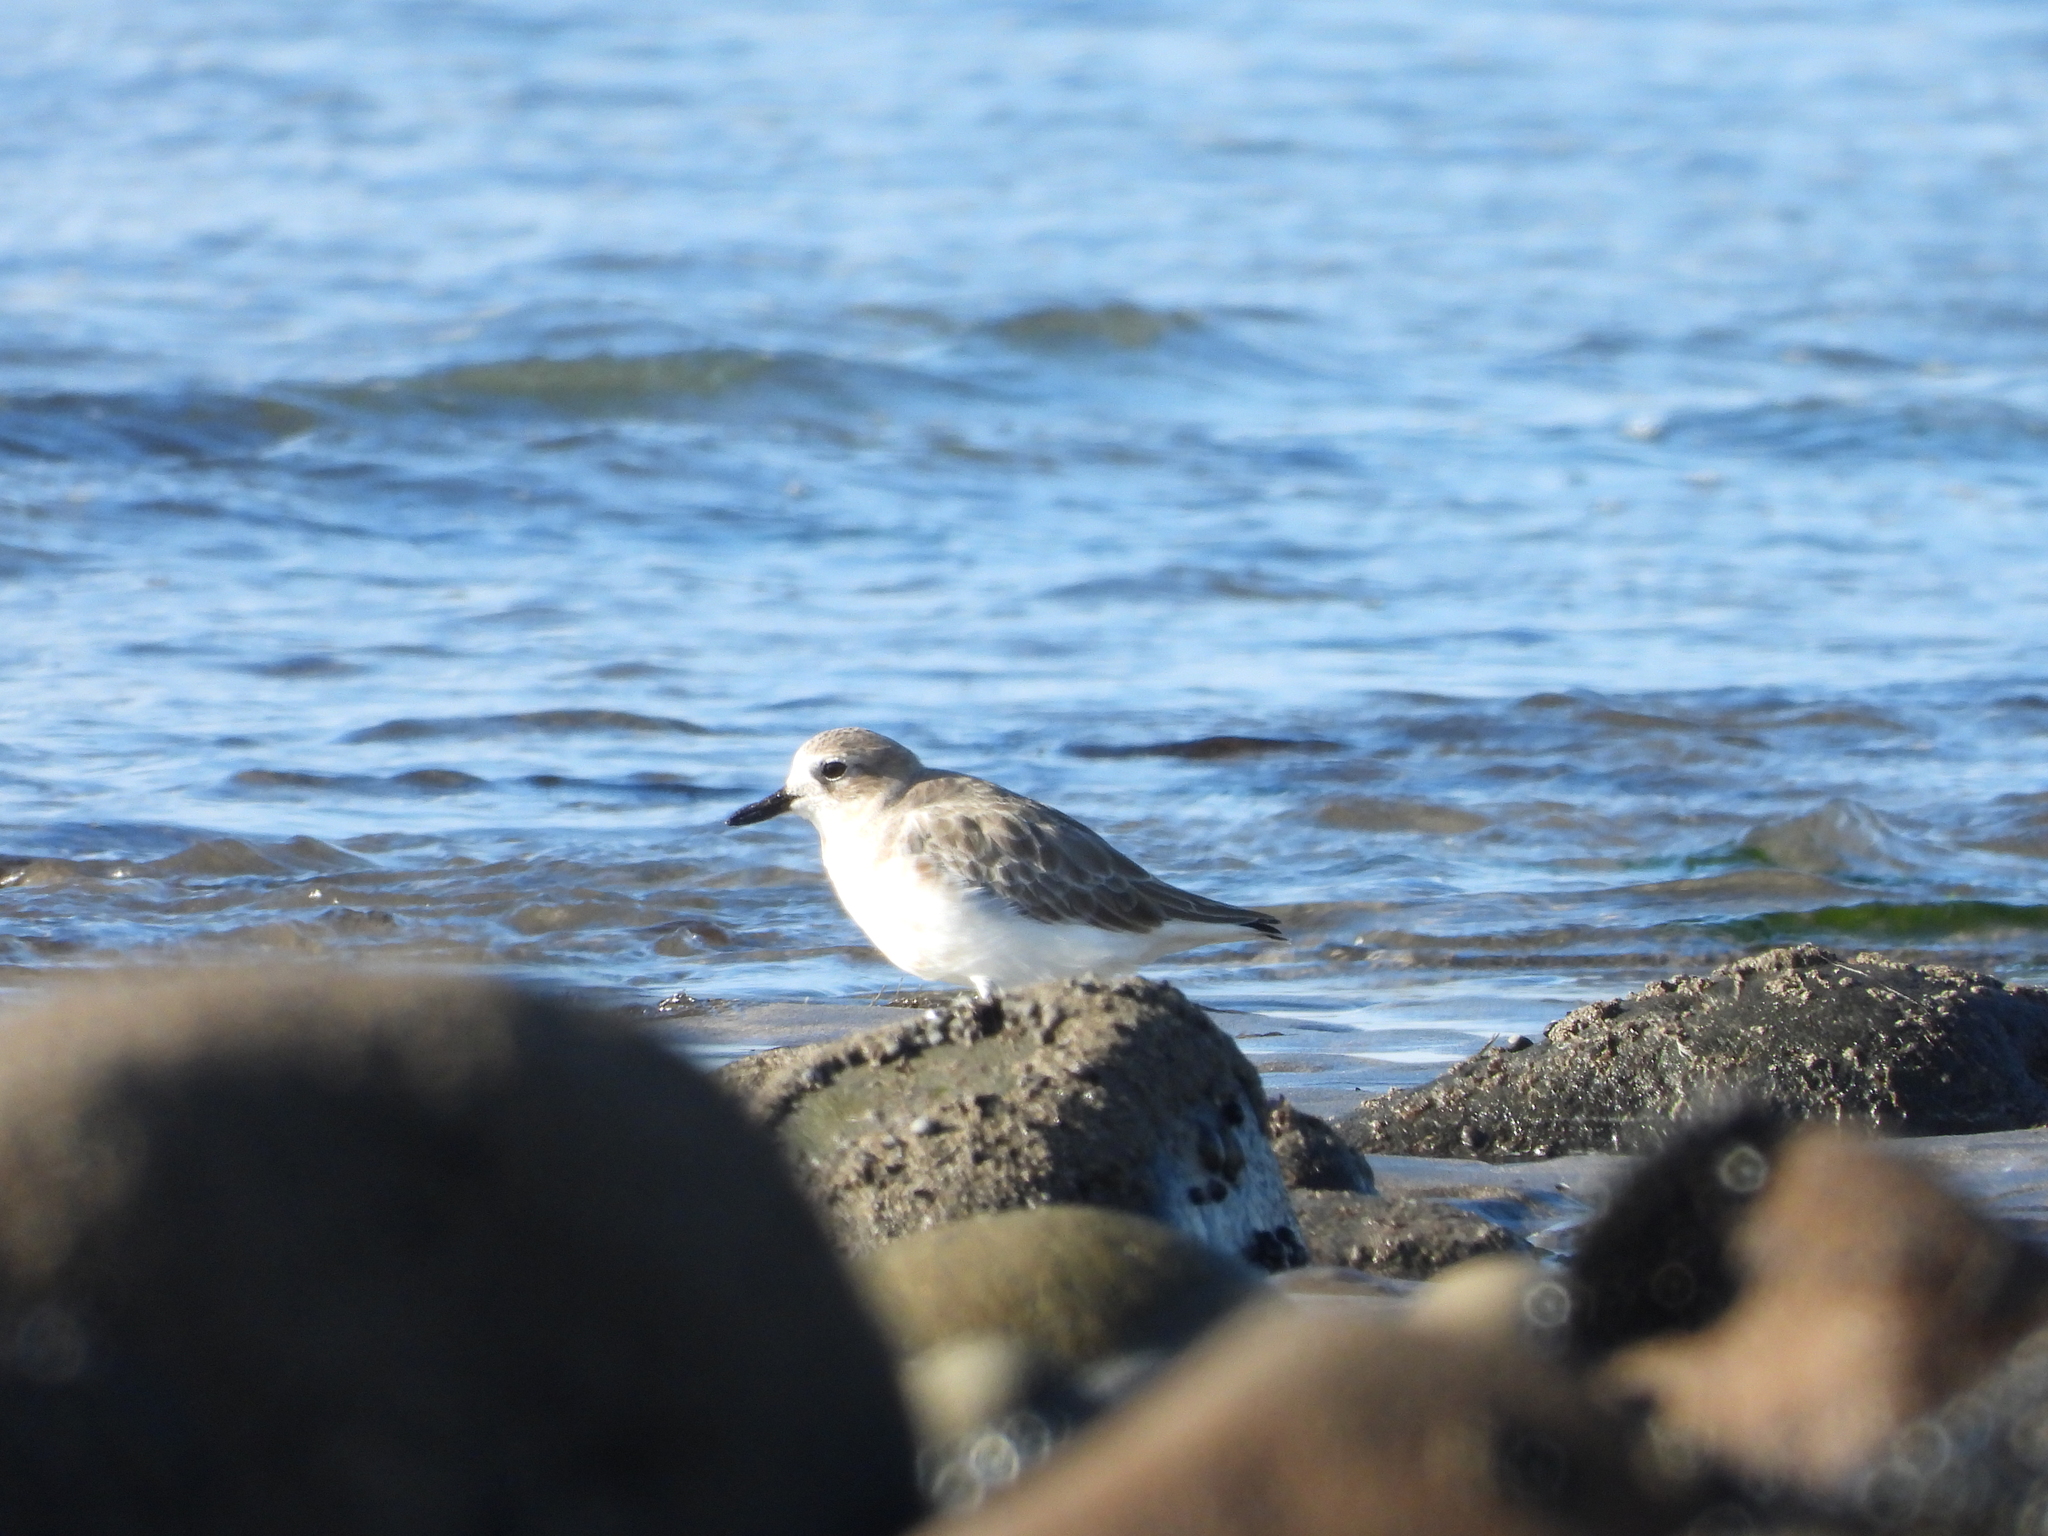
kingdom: Animalia
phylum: Chordata
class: Aves
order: Charadriiformes
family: Charadriidae
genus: Anarhynchus
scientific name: Anarhynchus
